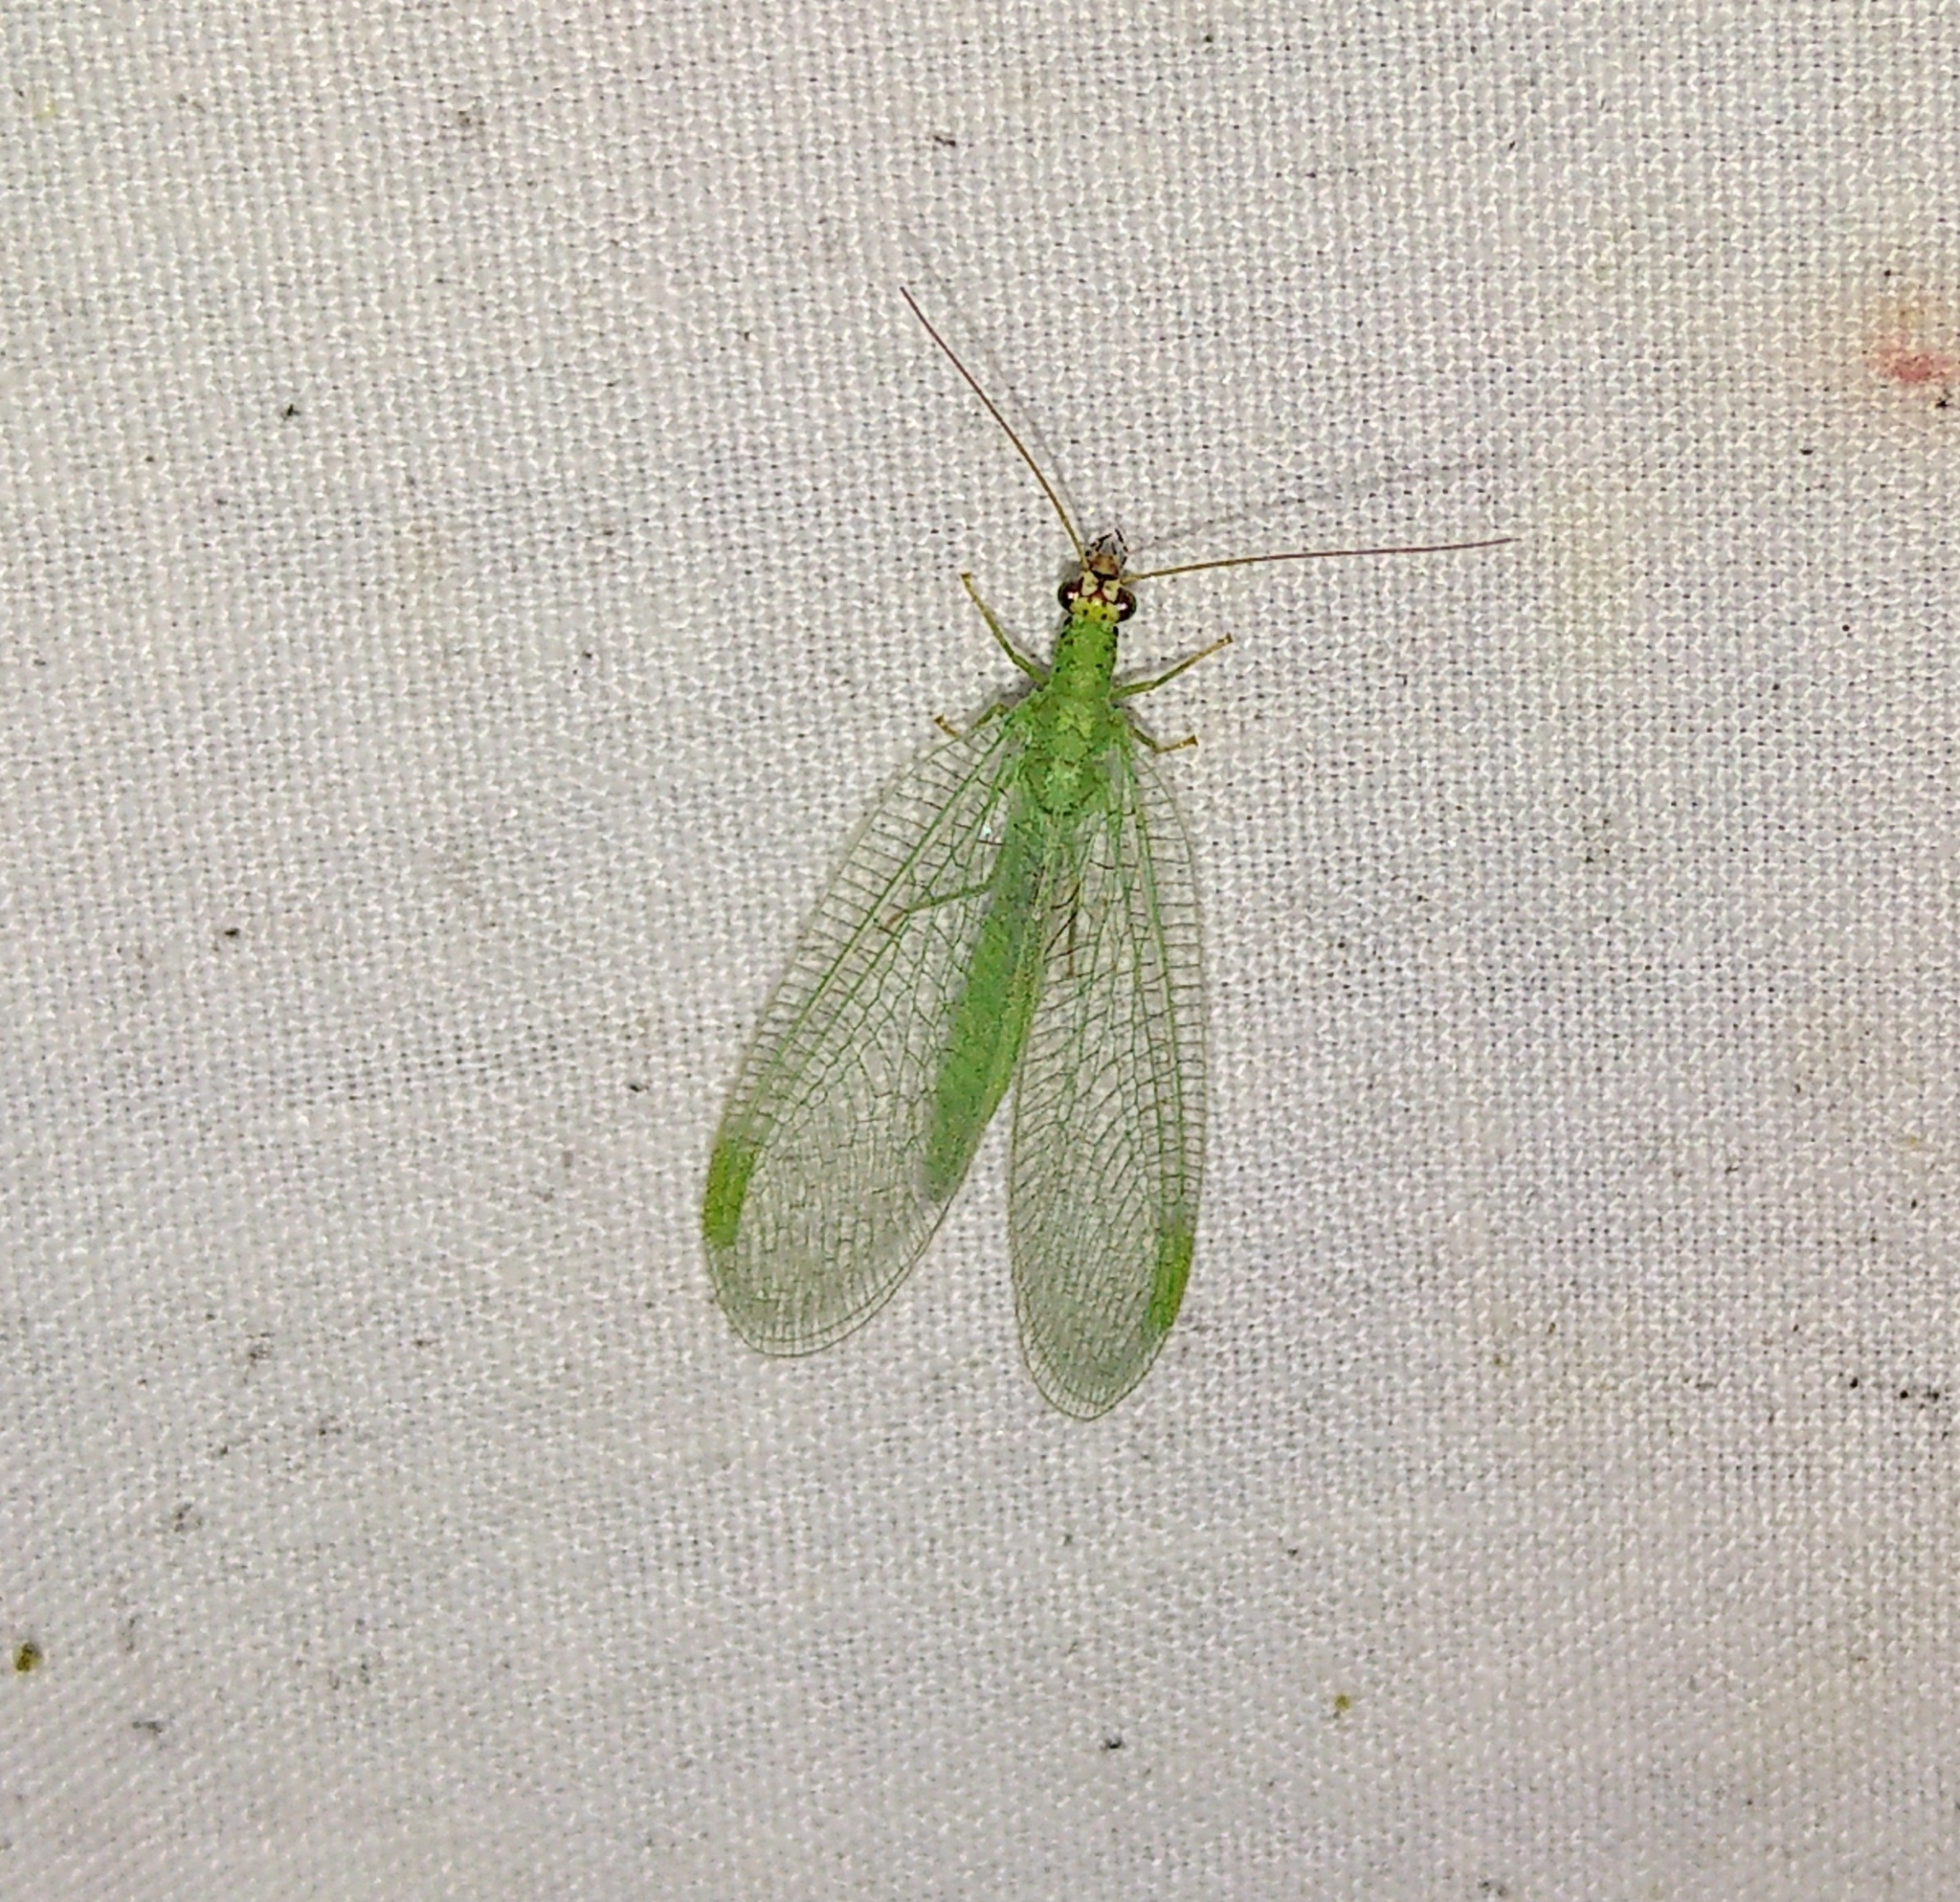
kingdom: Animalia
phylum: Arthropoda
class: Insecta
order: Neuroptera
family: Chrysopidae
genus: Chrysopa
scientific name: Chrysopa oculata
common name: Golden-eyed lacewing
